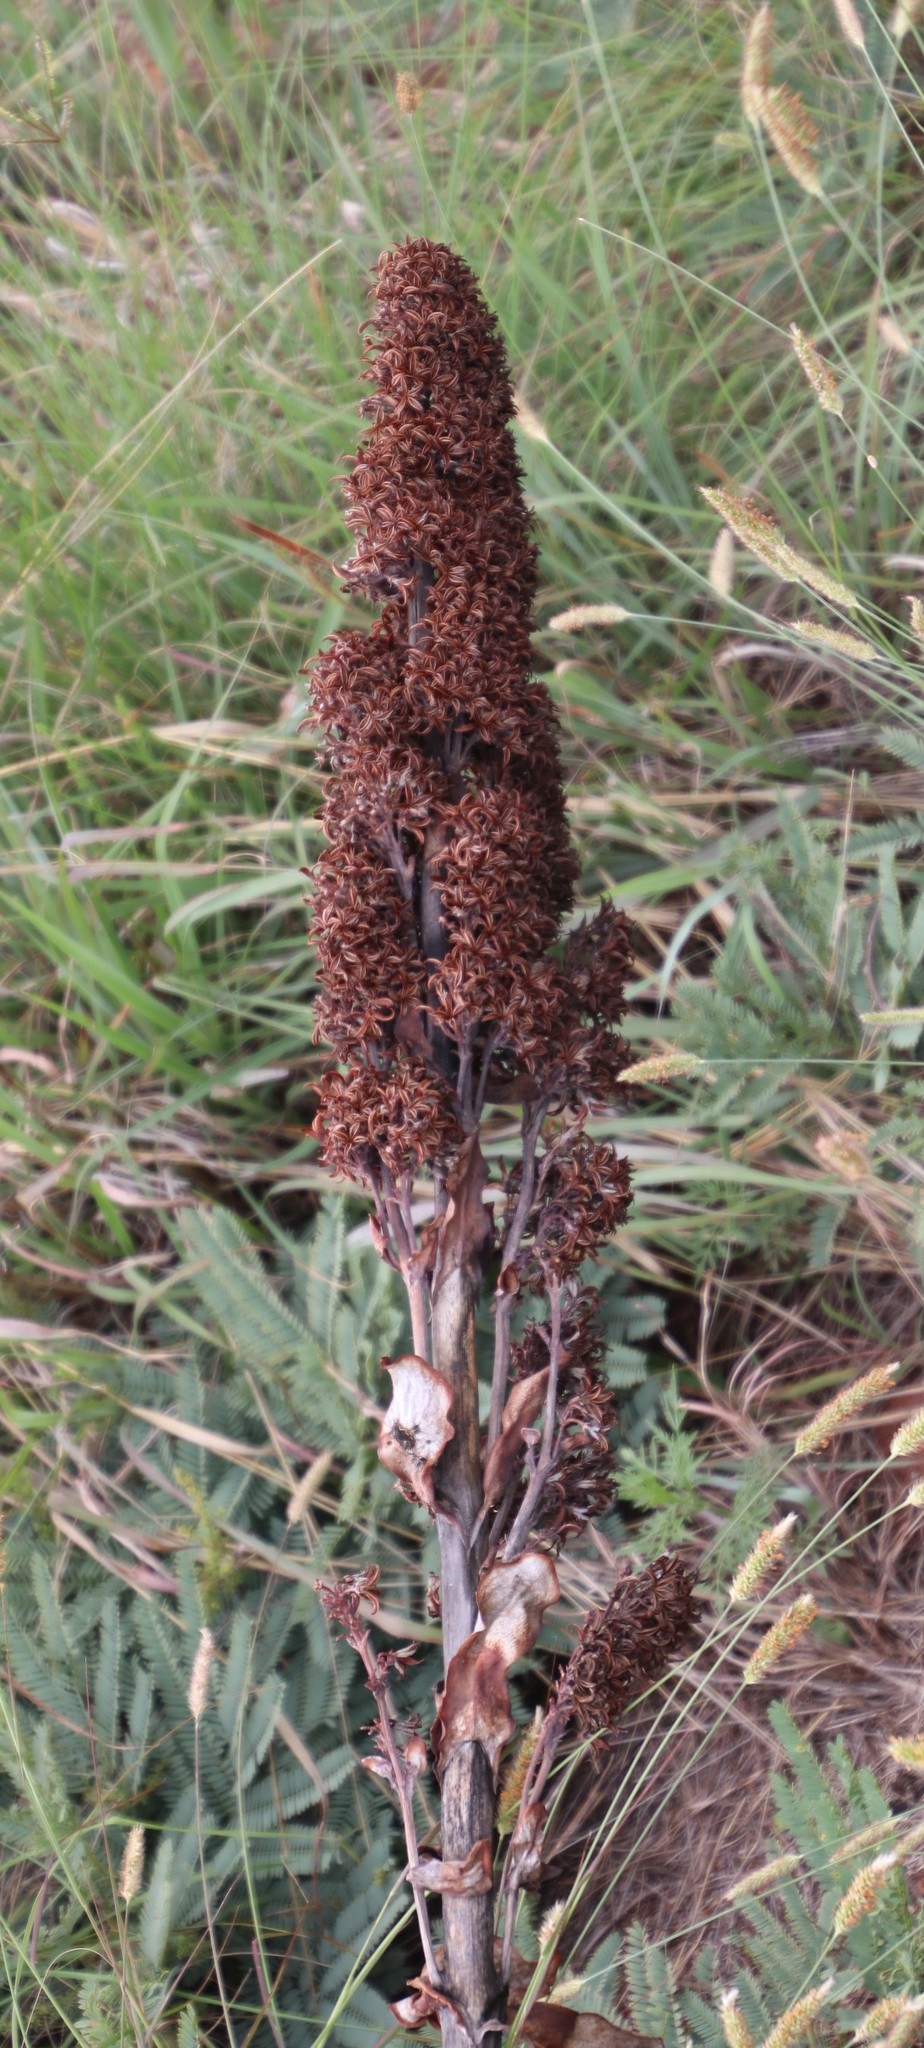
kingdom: Plantae
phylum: Tracheophyta
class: Magnoliopsida
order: Saxifragales
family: Crassulaceae
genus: Kalanchoe
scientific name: Kalanchoe thyrsiflora
